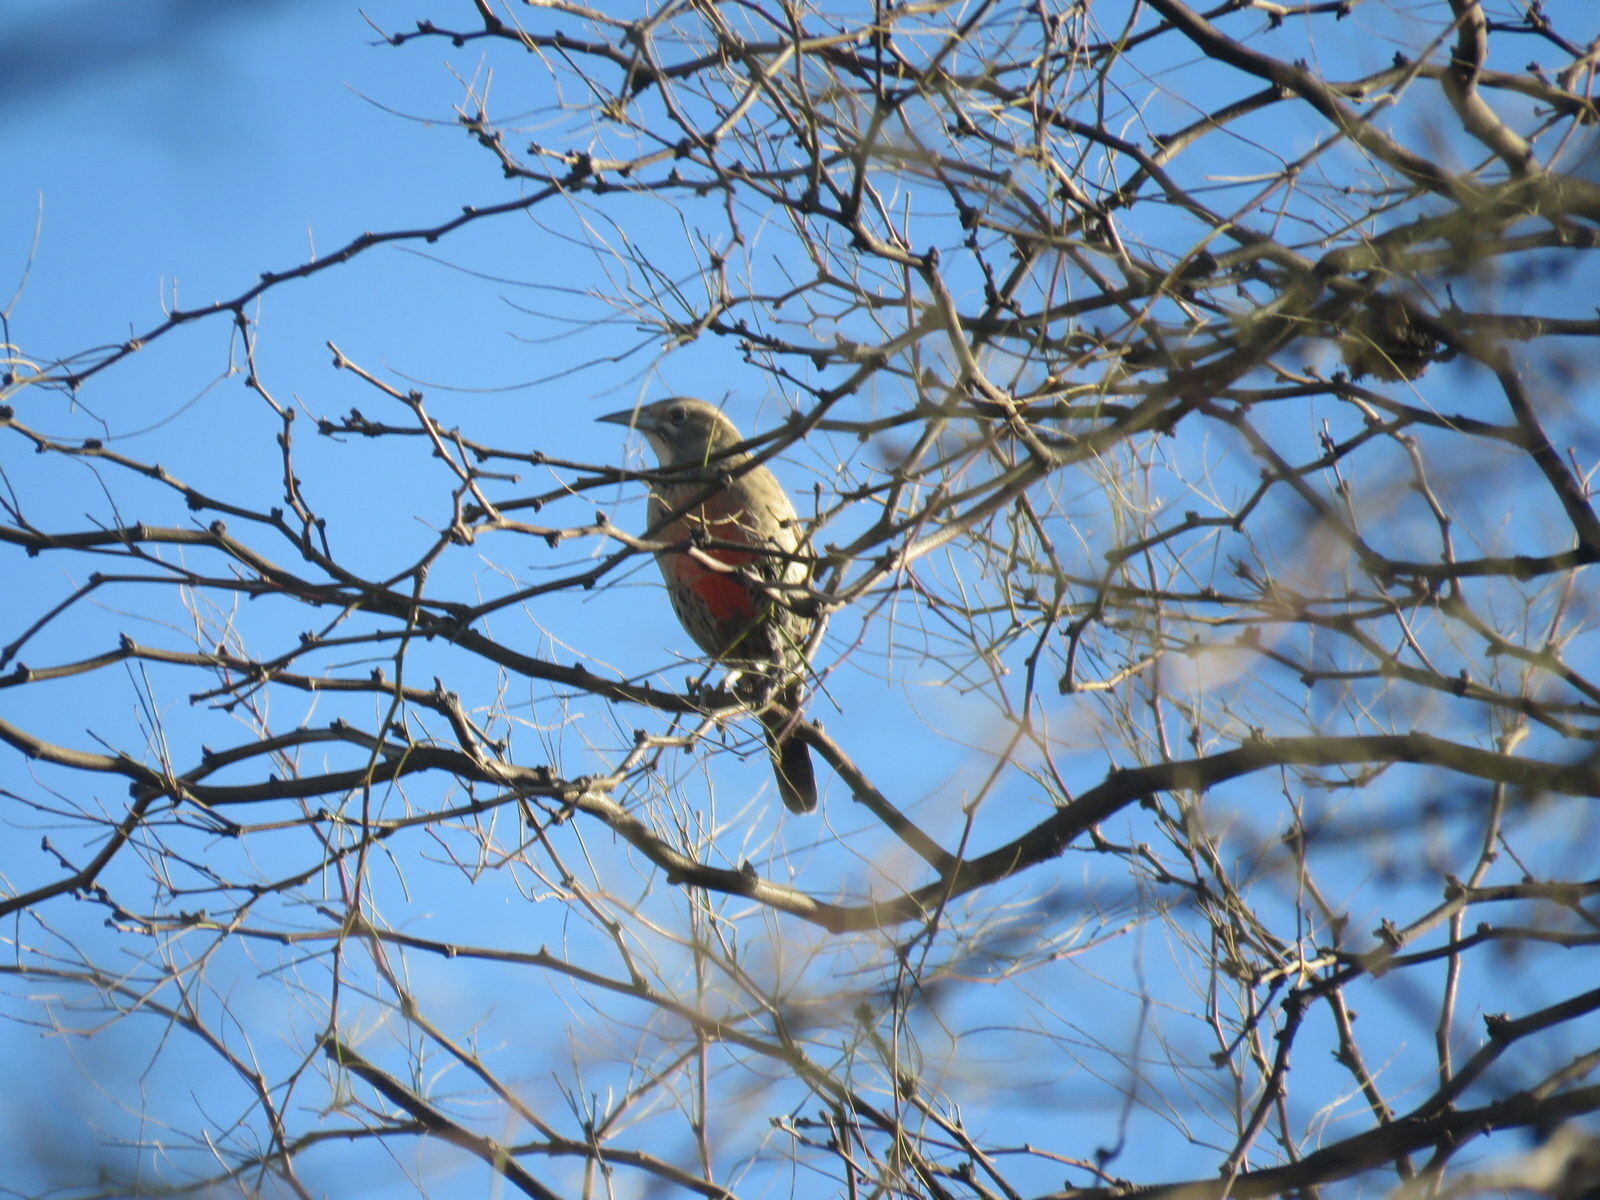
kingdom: Animalia
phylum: Chordata
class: Aves
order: Passeriformes
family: Icteridae
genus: Sturnella
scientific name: Sturnella loyca
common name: Long-tailed meadowlark
